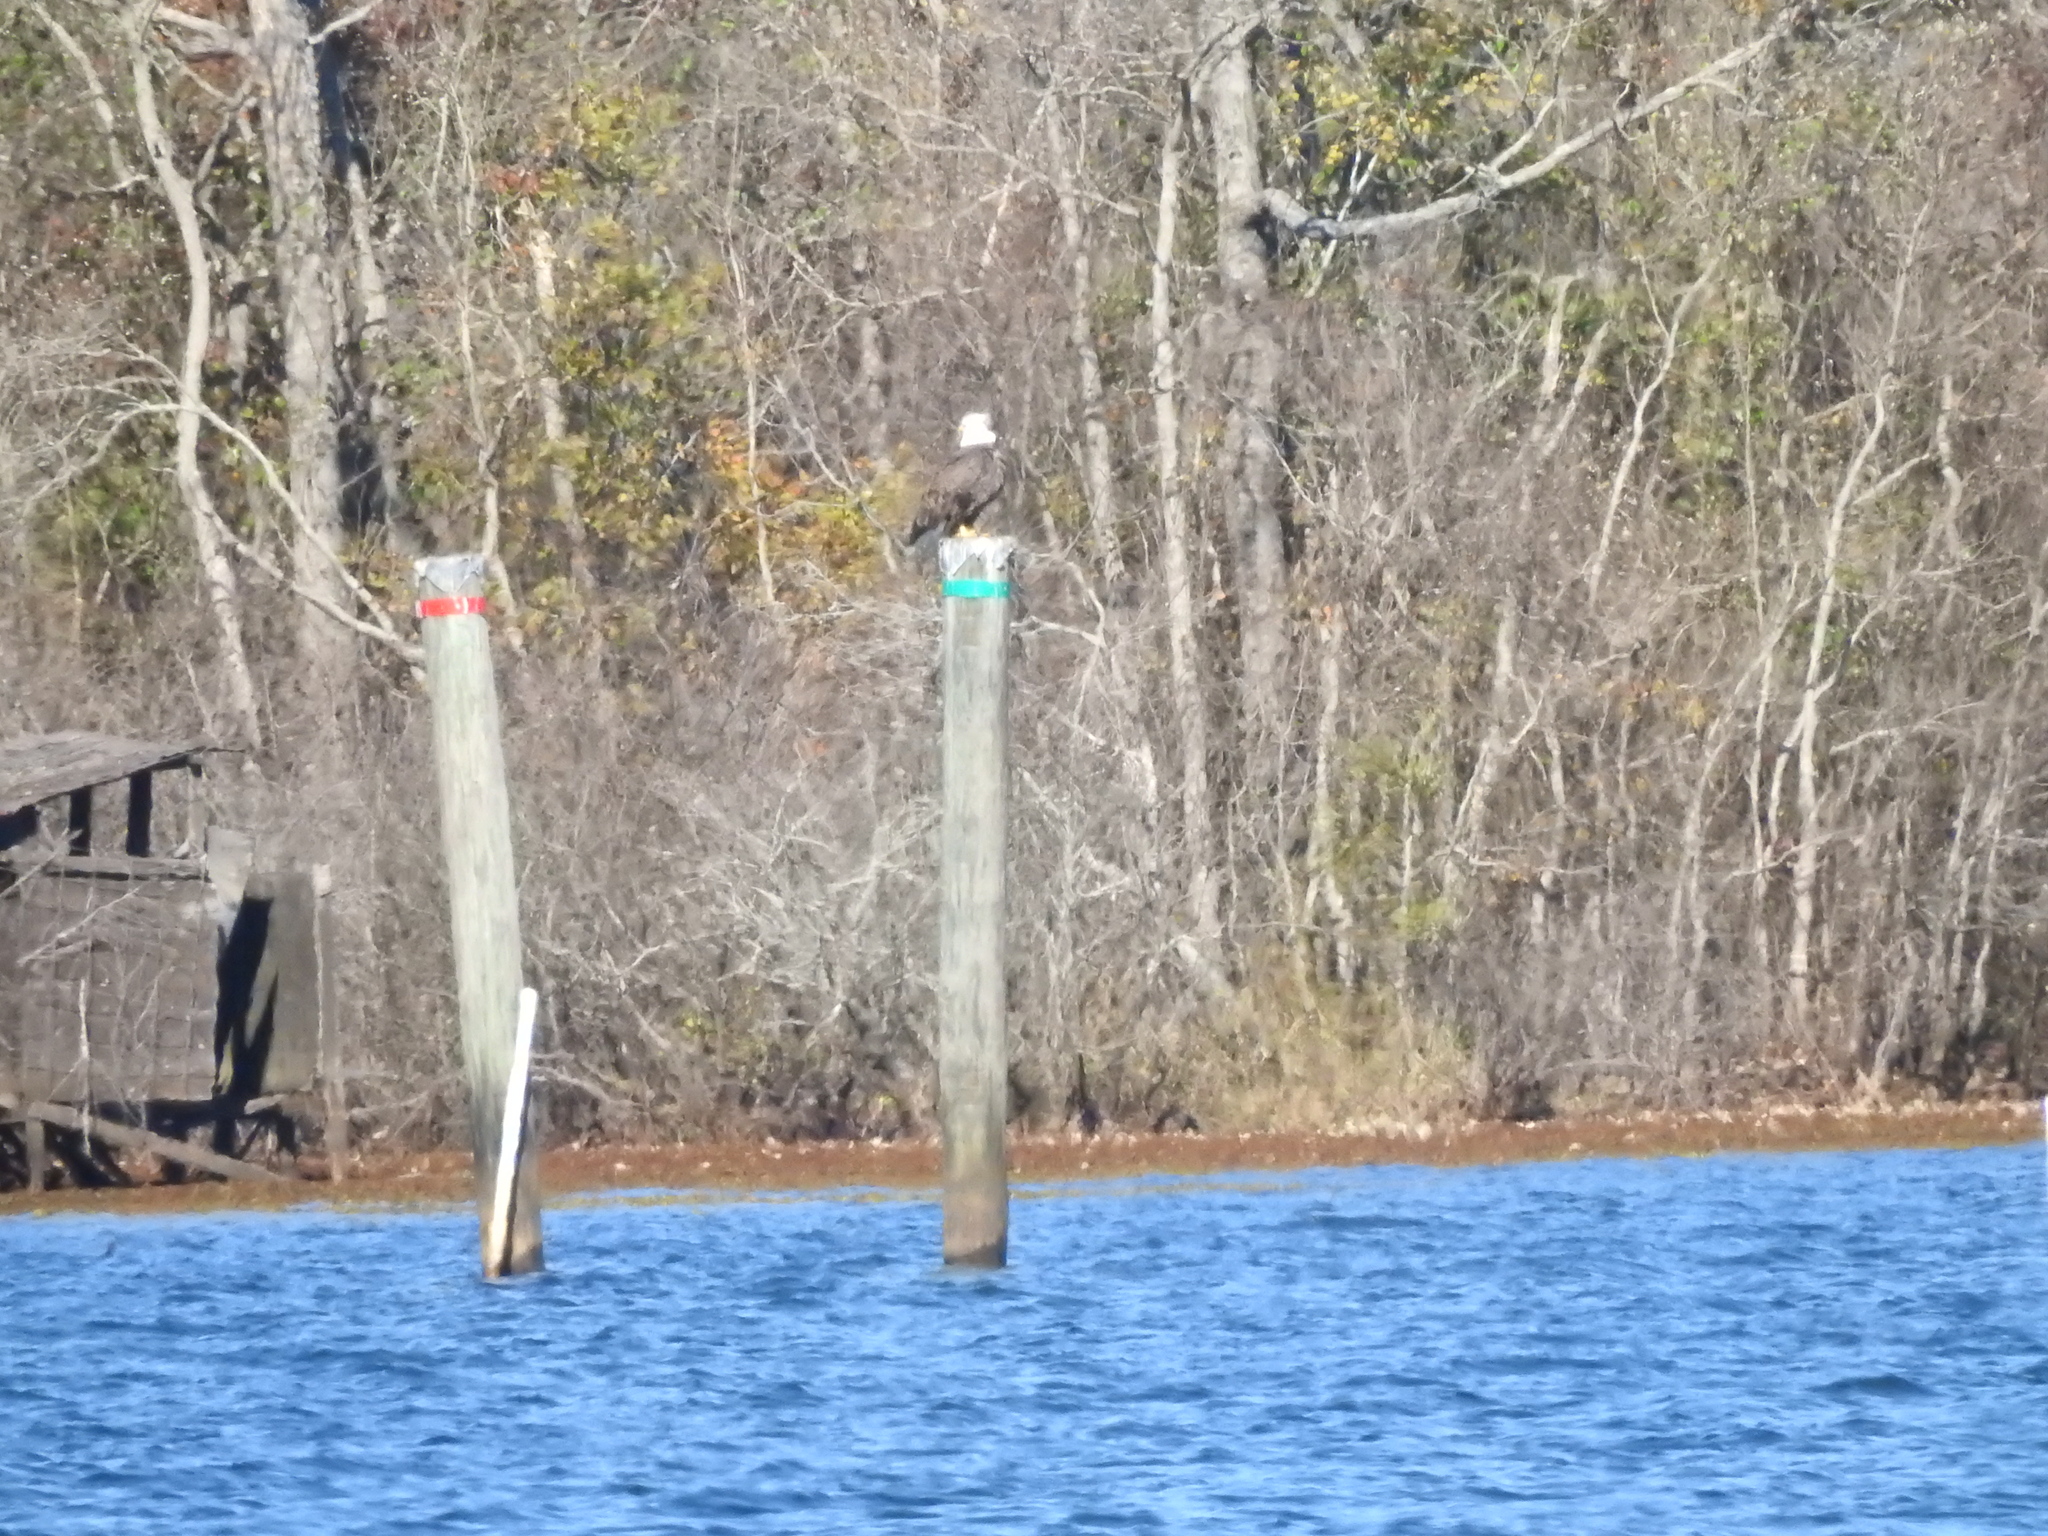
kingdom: Animalia
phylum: Chordata
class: Aves
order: Accipitriformes
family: Accipitridae
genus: Haliaeetus
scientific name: Haliaeetus leucocephalus
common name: Bald eagle
